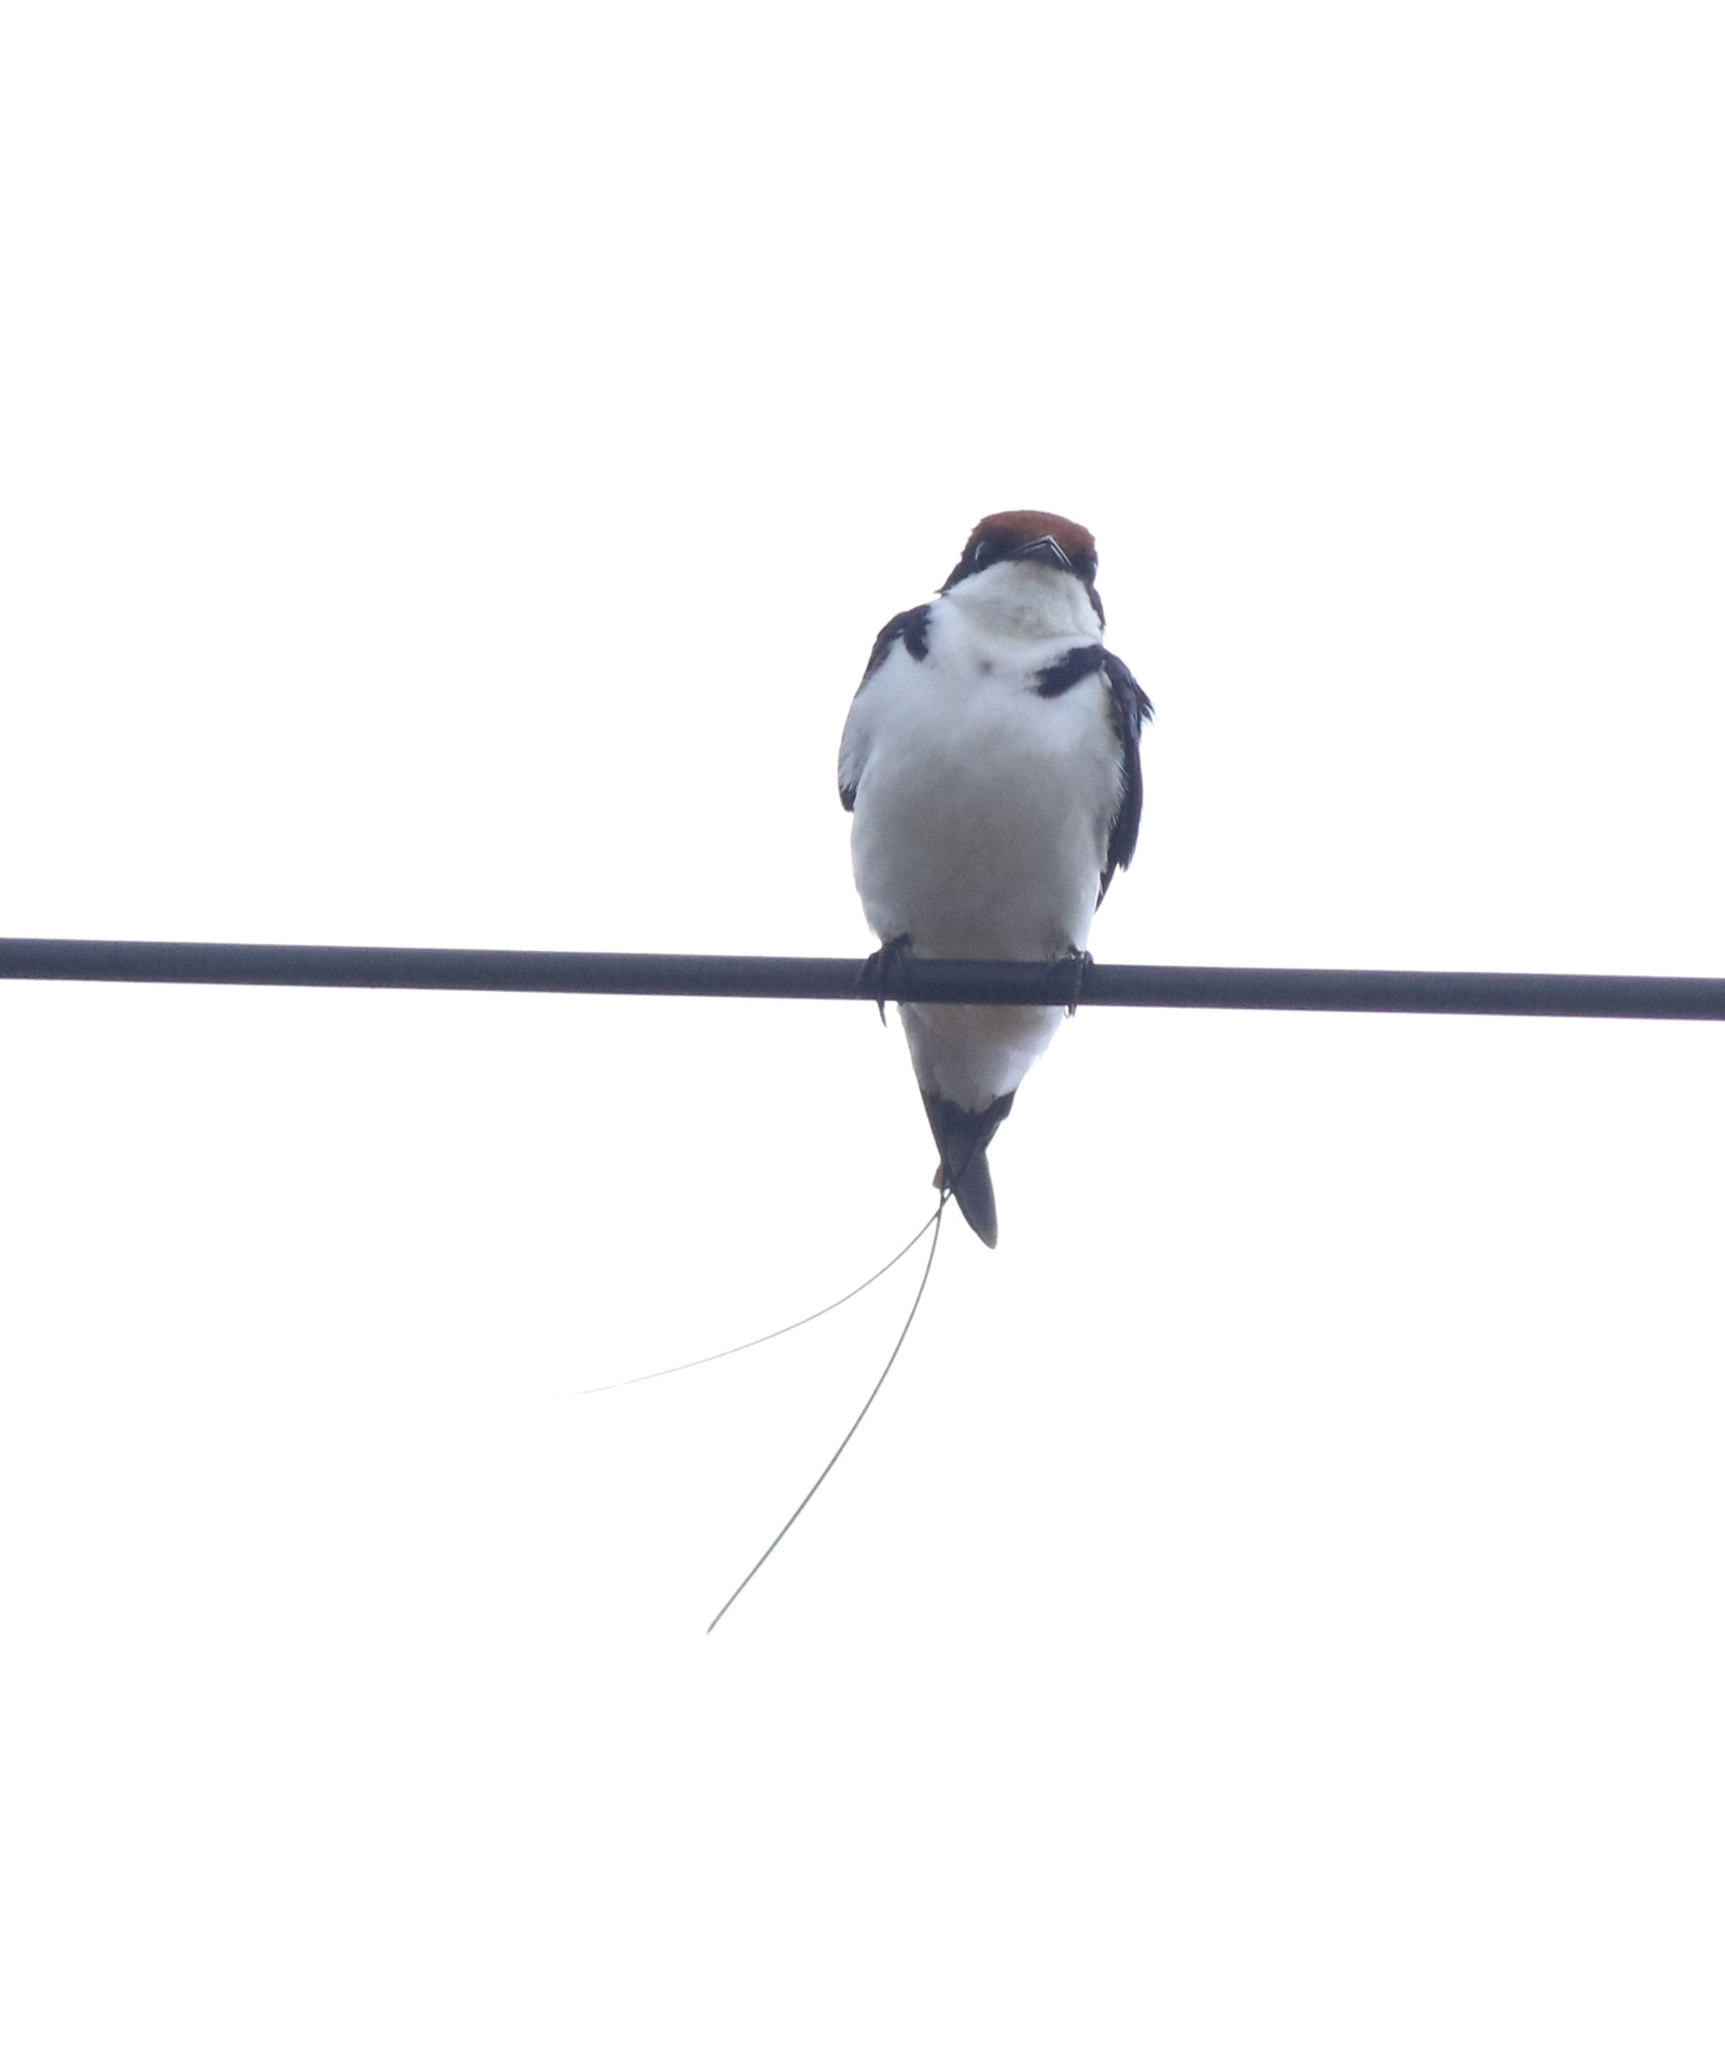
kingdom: Animalia
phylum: Chordata
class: Aves
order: Passeriformes
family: Hirundinidae
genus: Hirundo
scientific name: Hirundo smithii
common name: Wire-tailed swallow
